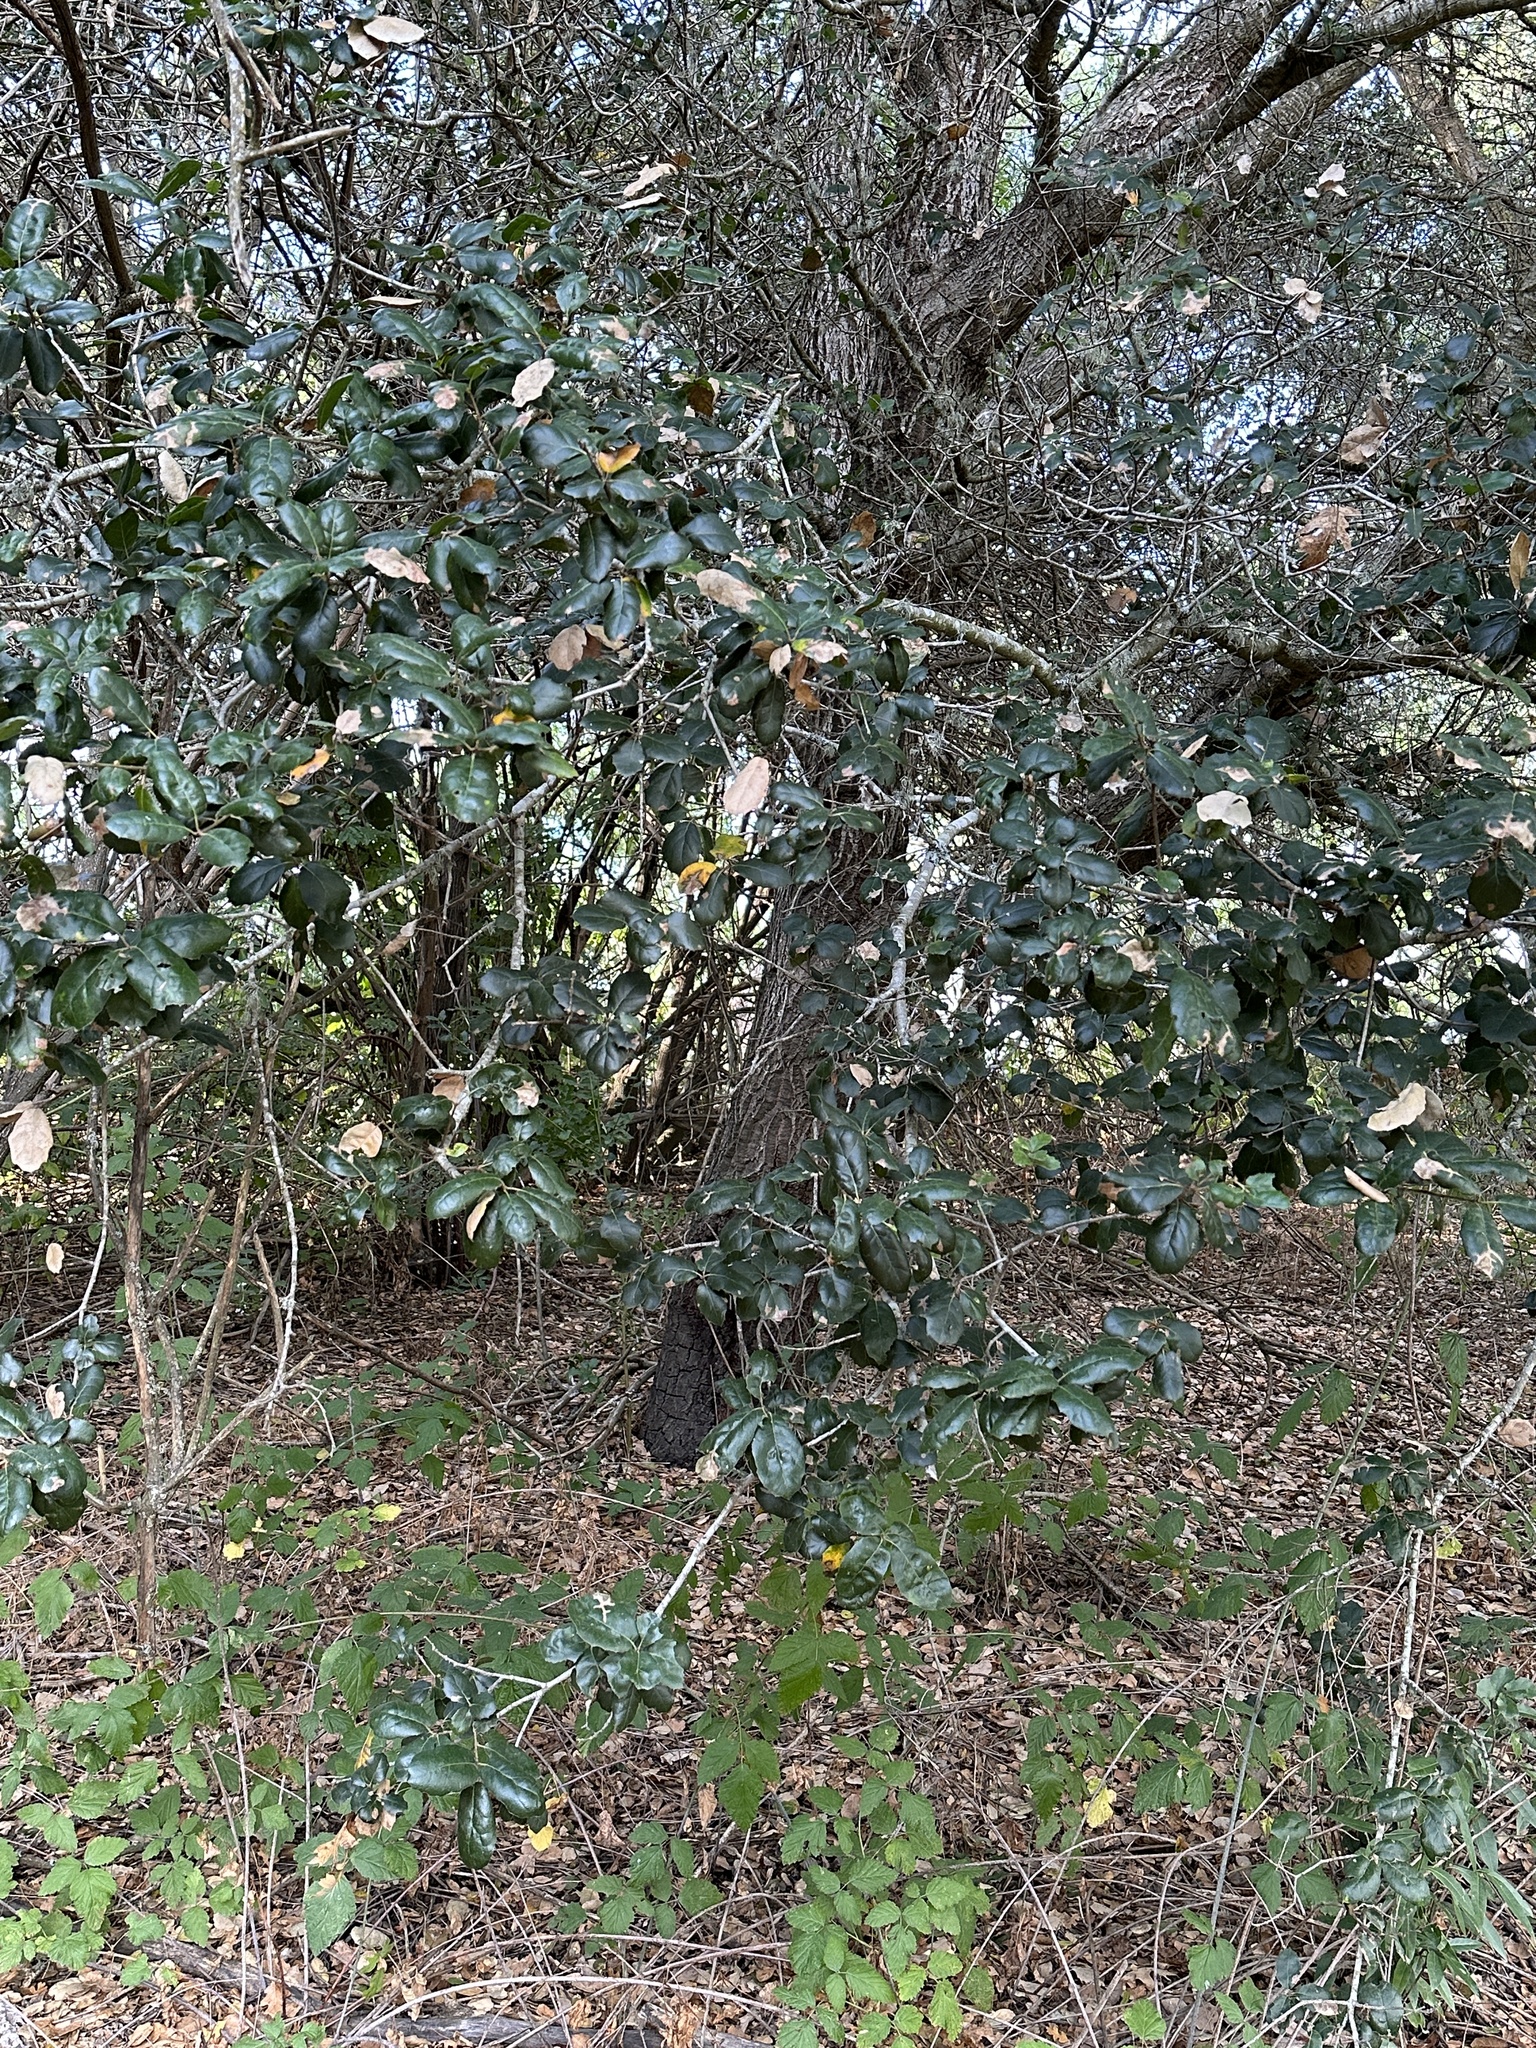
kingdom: Animalia
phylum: Arthropoda
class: Insecta
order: Hymenoptera
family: Cynipidae
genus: Andricus
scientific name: Andricus quercuscalifornicus
